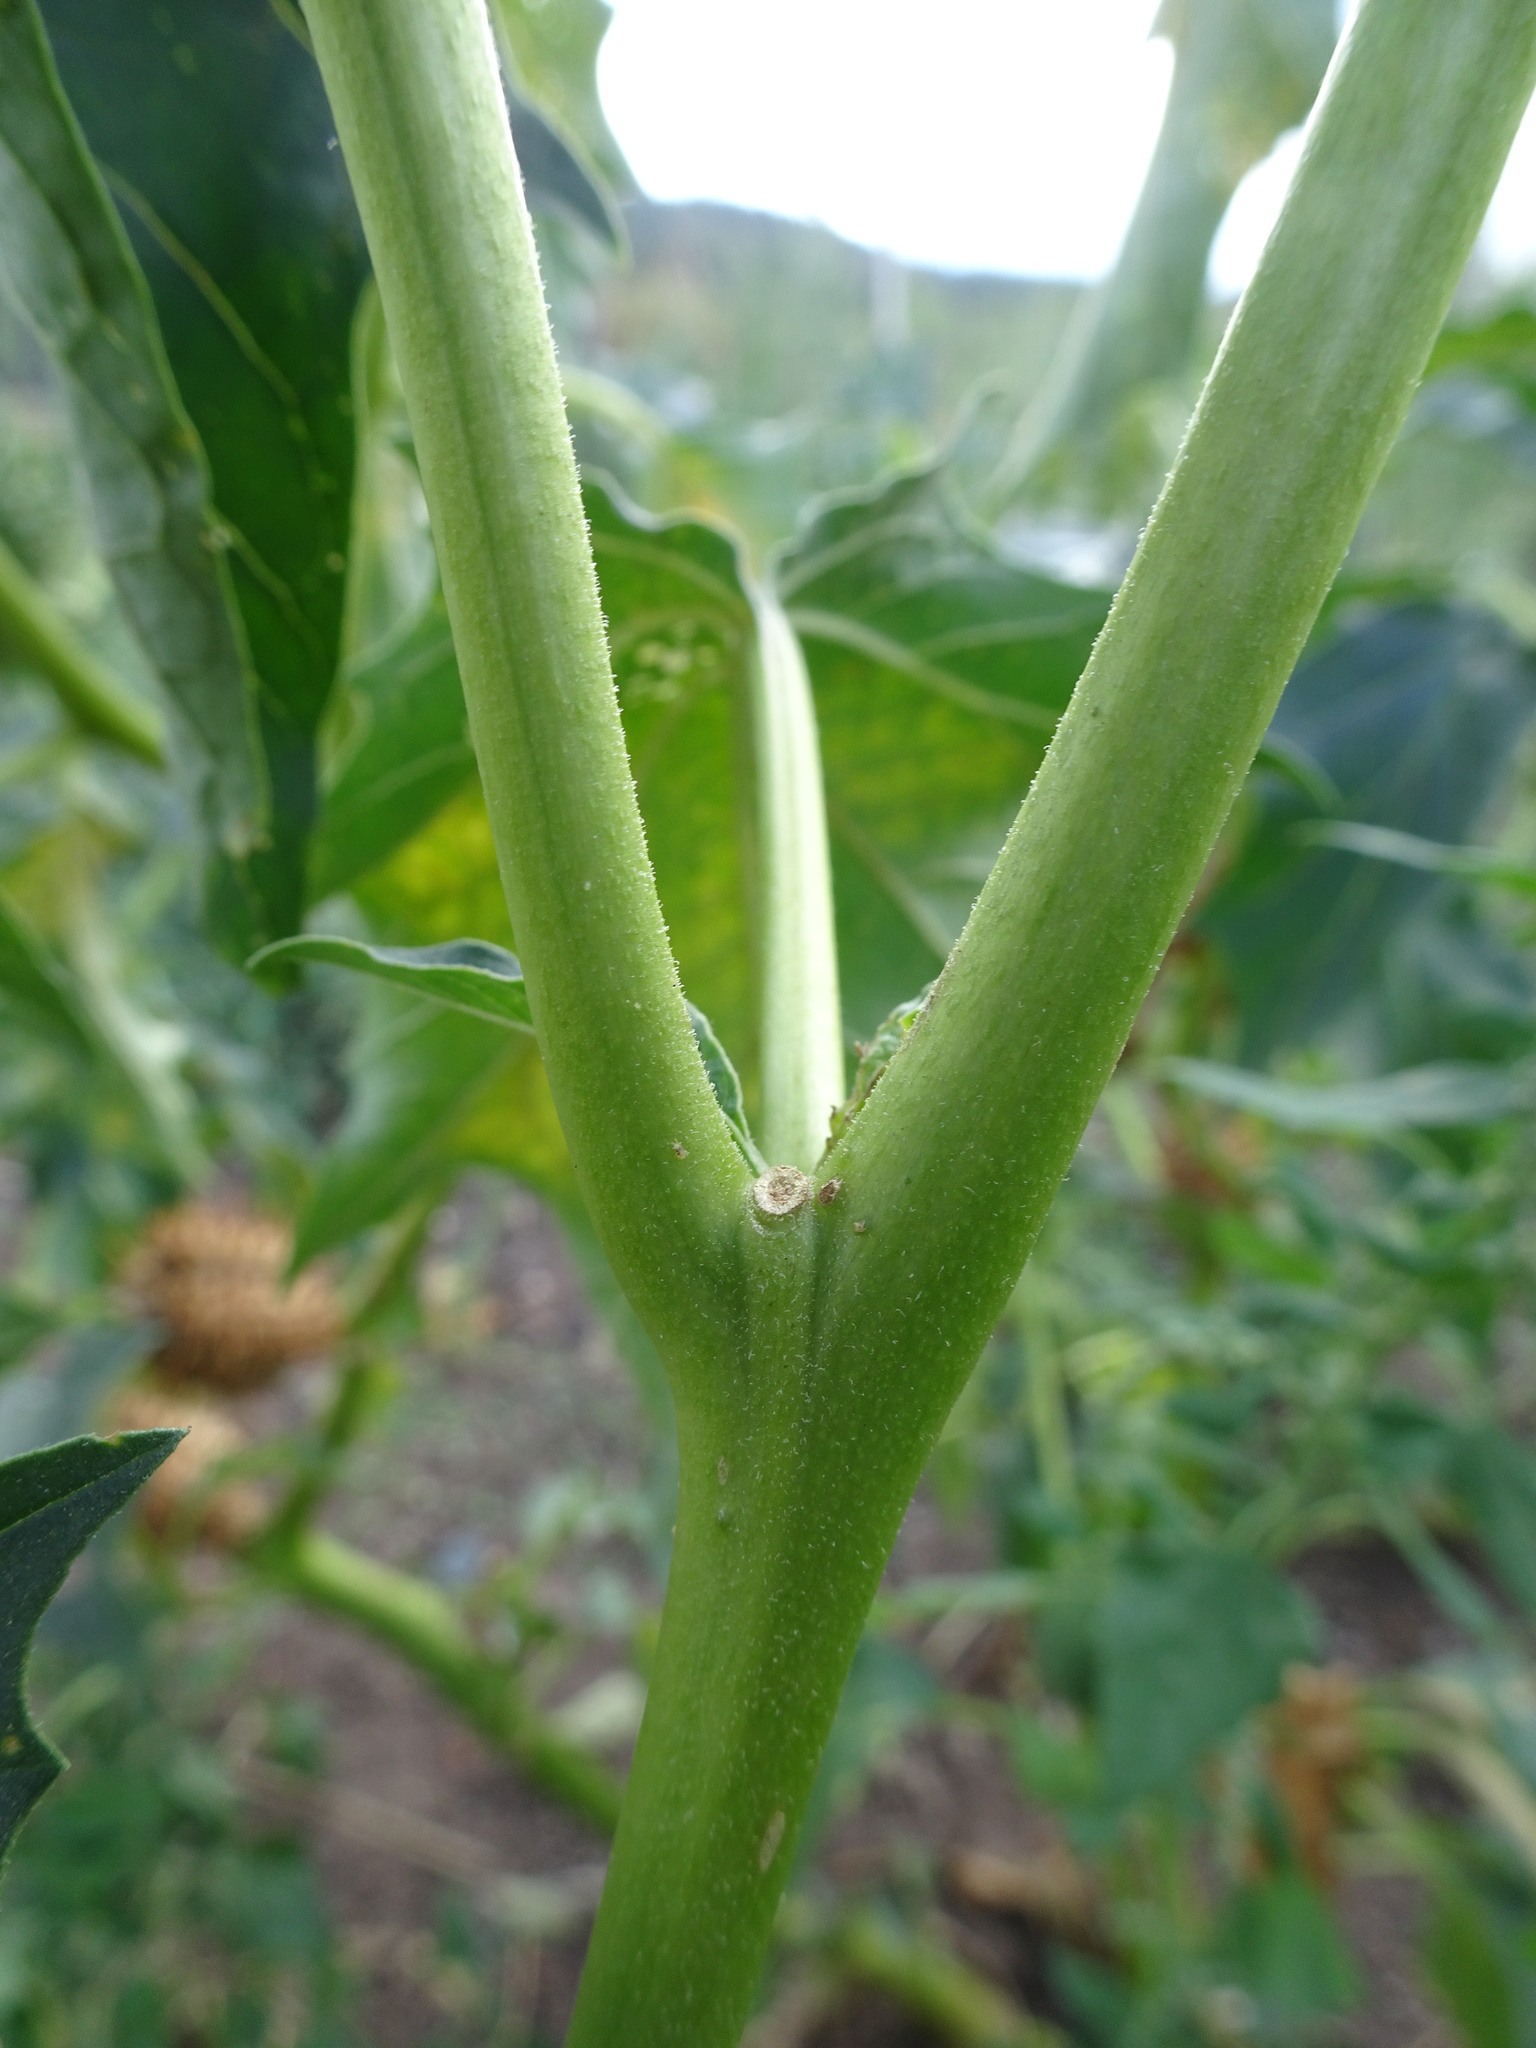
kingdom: Plantae
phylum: Tracheophyta
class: Magnoliopsida
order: Solanales
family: Solanaceae
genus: Datura
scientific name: Datura stramonium
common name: Thorn-apple
